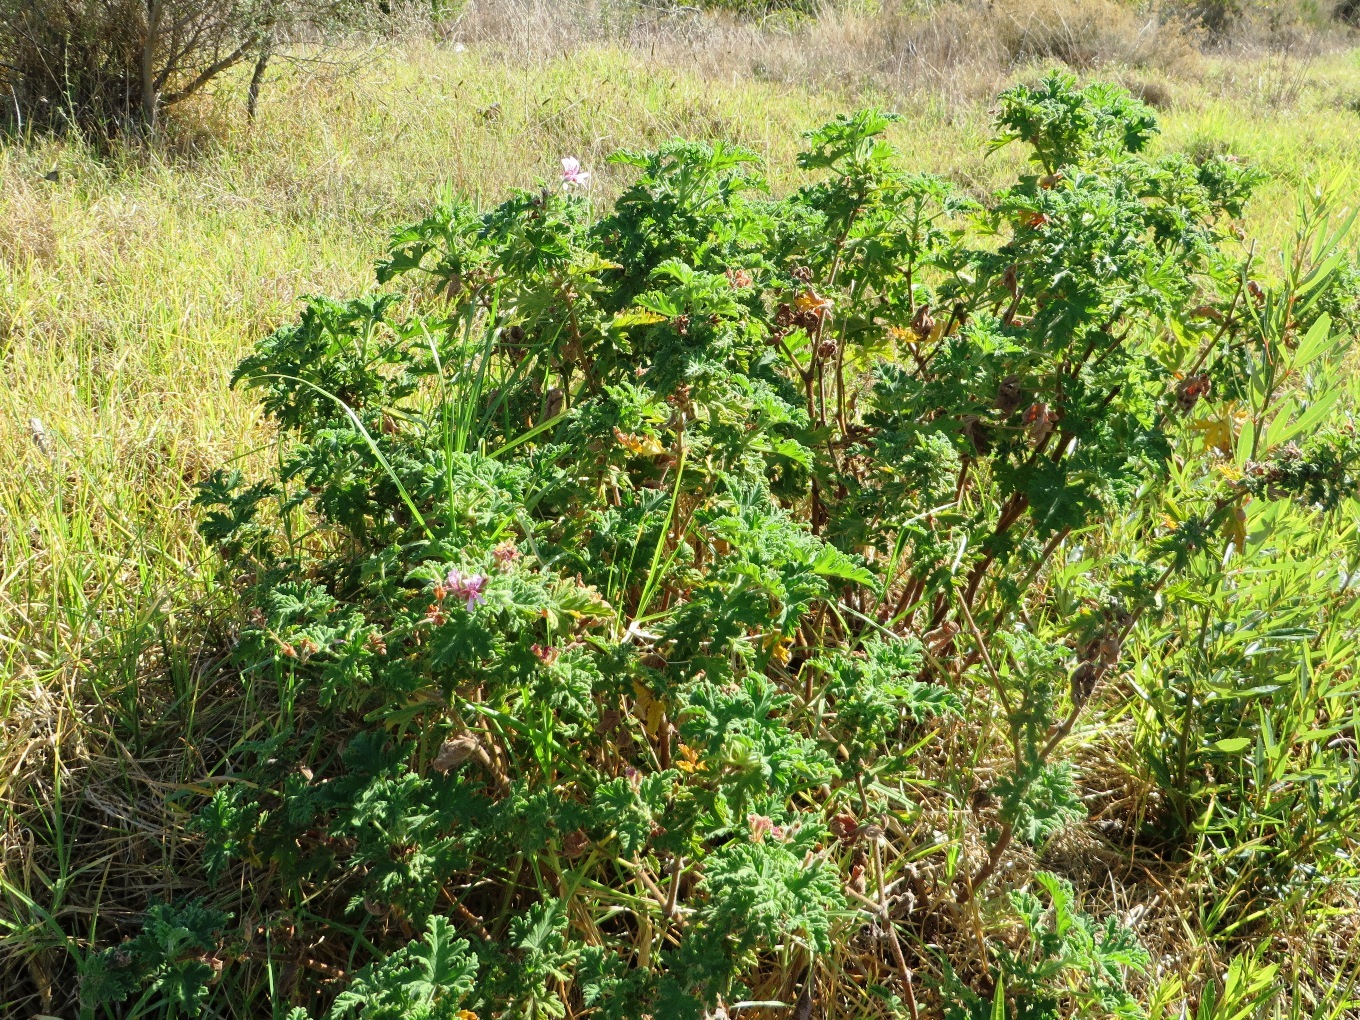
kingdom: Plantae
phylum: Tracheophyta
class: Magnoliopsida
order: Geraniales
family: Geraniaceae
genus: Pelargonium
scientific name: Pelargonium graveolens
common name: Rose-scent geranium
